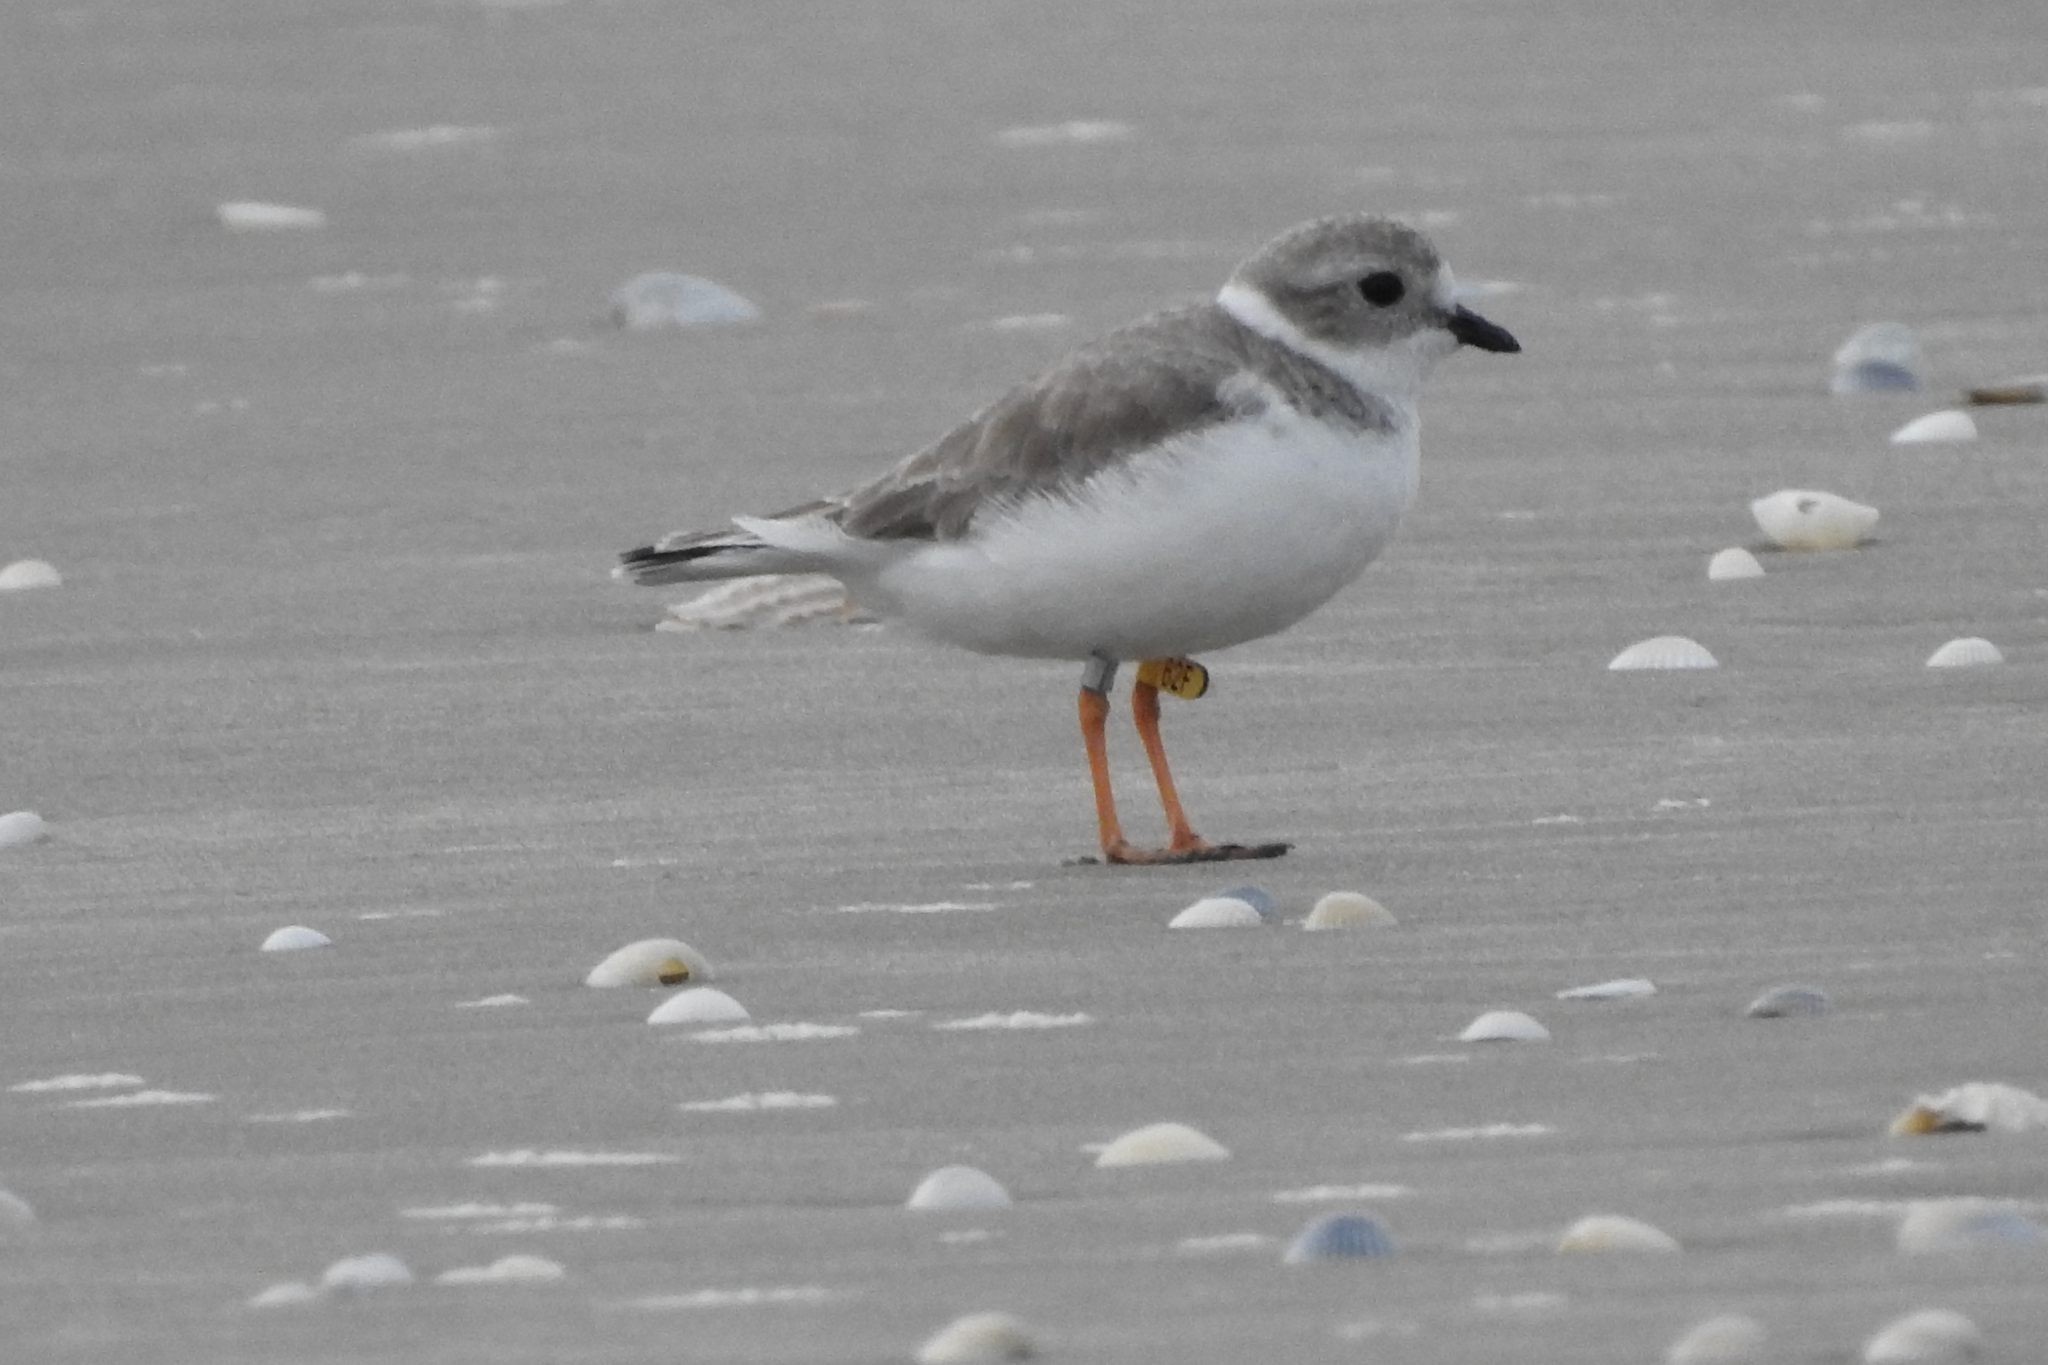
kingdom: Animalia
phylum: Chordata
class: Aves
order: Charadriiformes
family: Charadriidae
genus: Charadrius
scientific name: Charadrius melodus
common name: Piping plover
